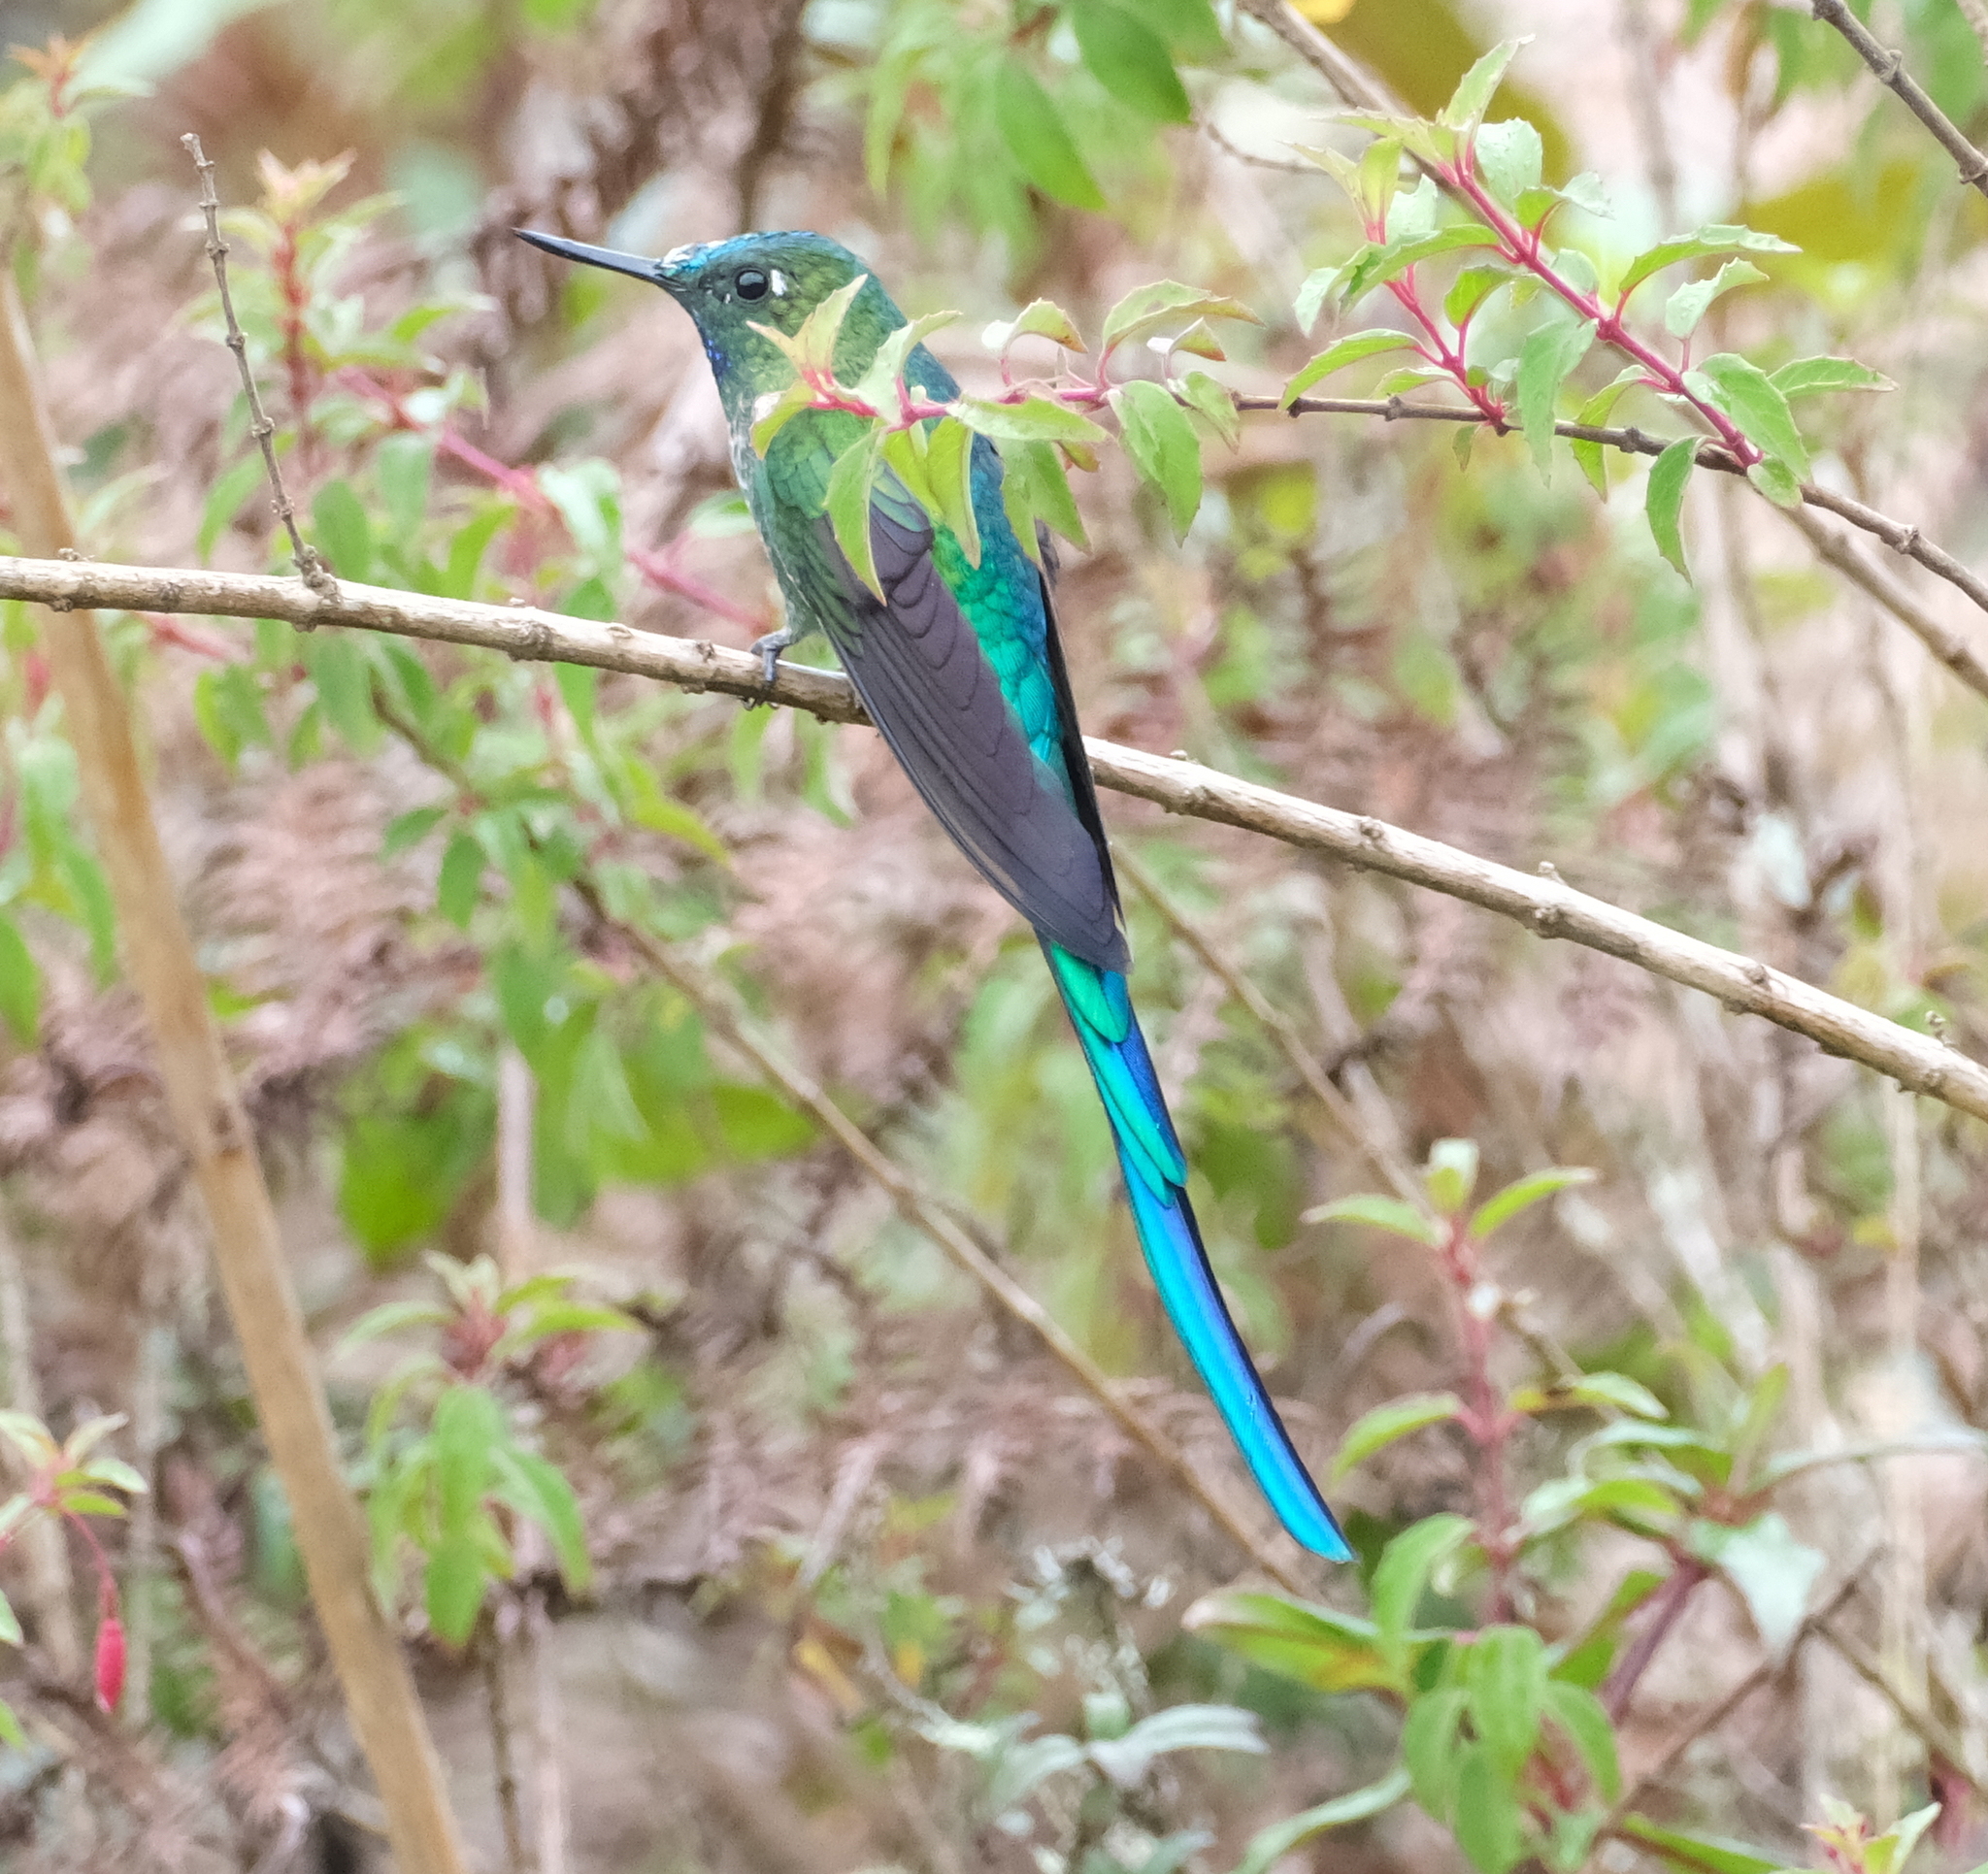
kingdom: Animalia
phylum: Chordata
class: Aves
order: Apodiformes
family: Trochilidae
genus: Aglaiocercus
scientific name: Aglaiocercus kingii
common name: Long-tailed sylph
